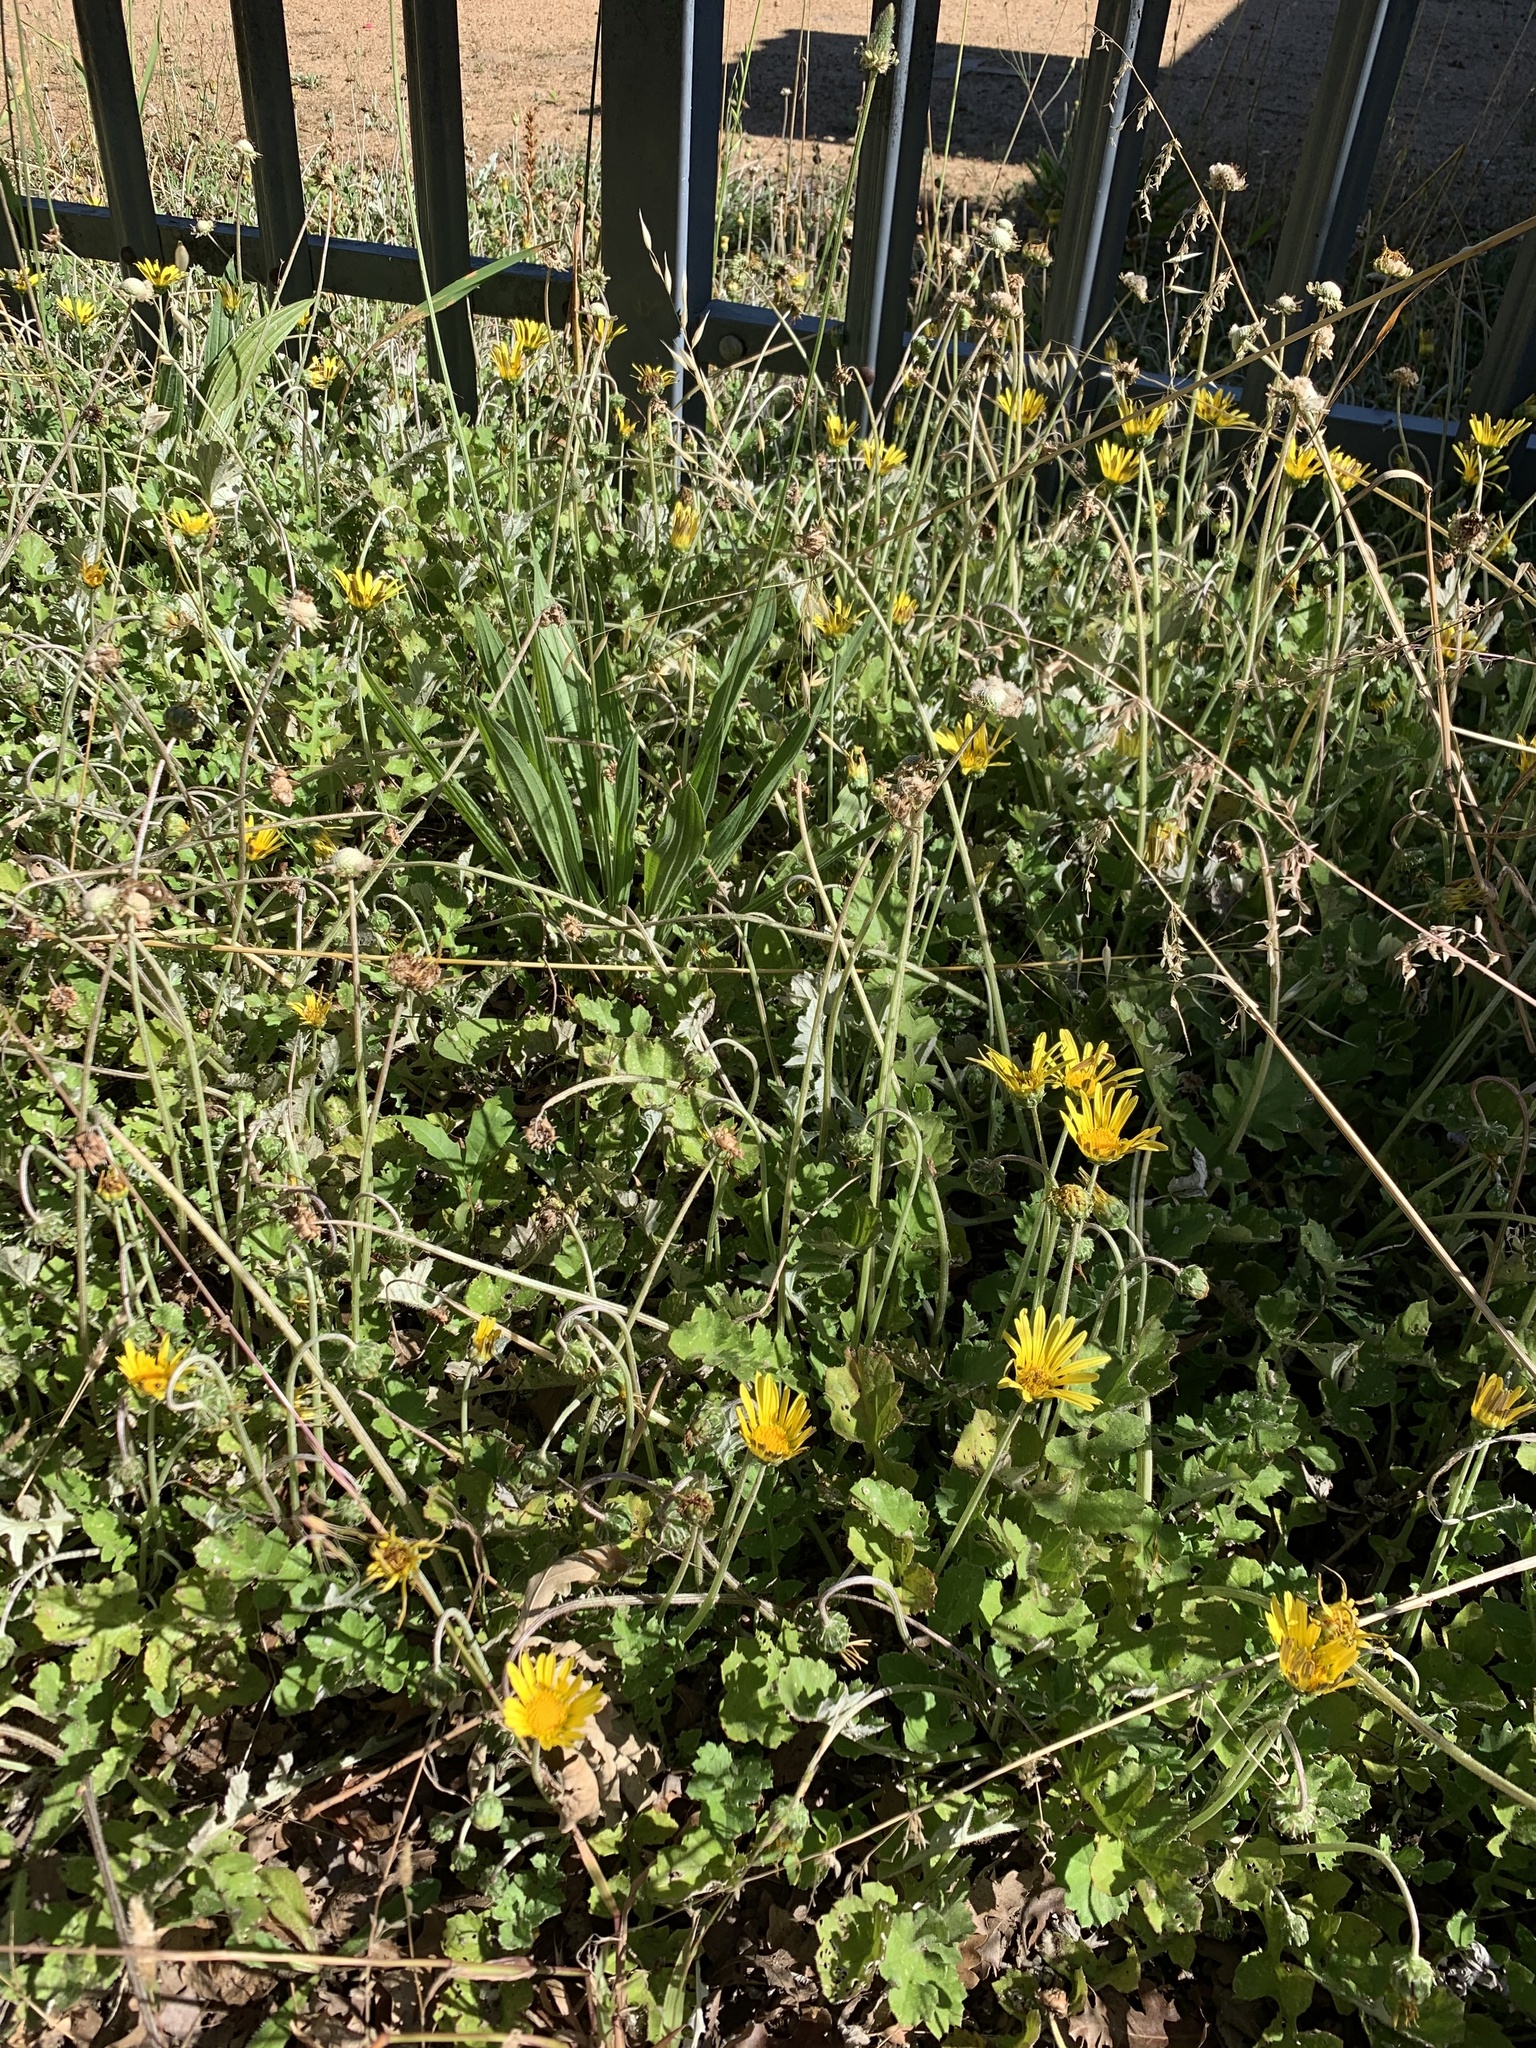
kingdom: Plantae
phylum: Tracheophyta
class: Magnoliopsida
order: Asterales
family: Asteraceae
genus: Arctotheca
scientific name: Arctotheca prostrata
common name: Capeweed
